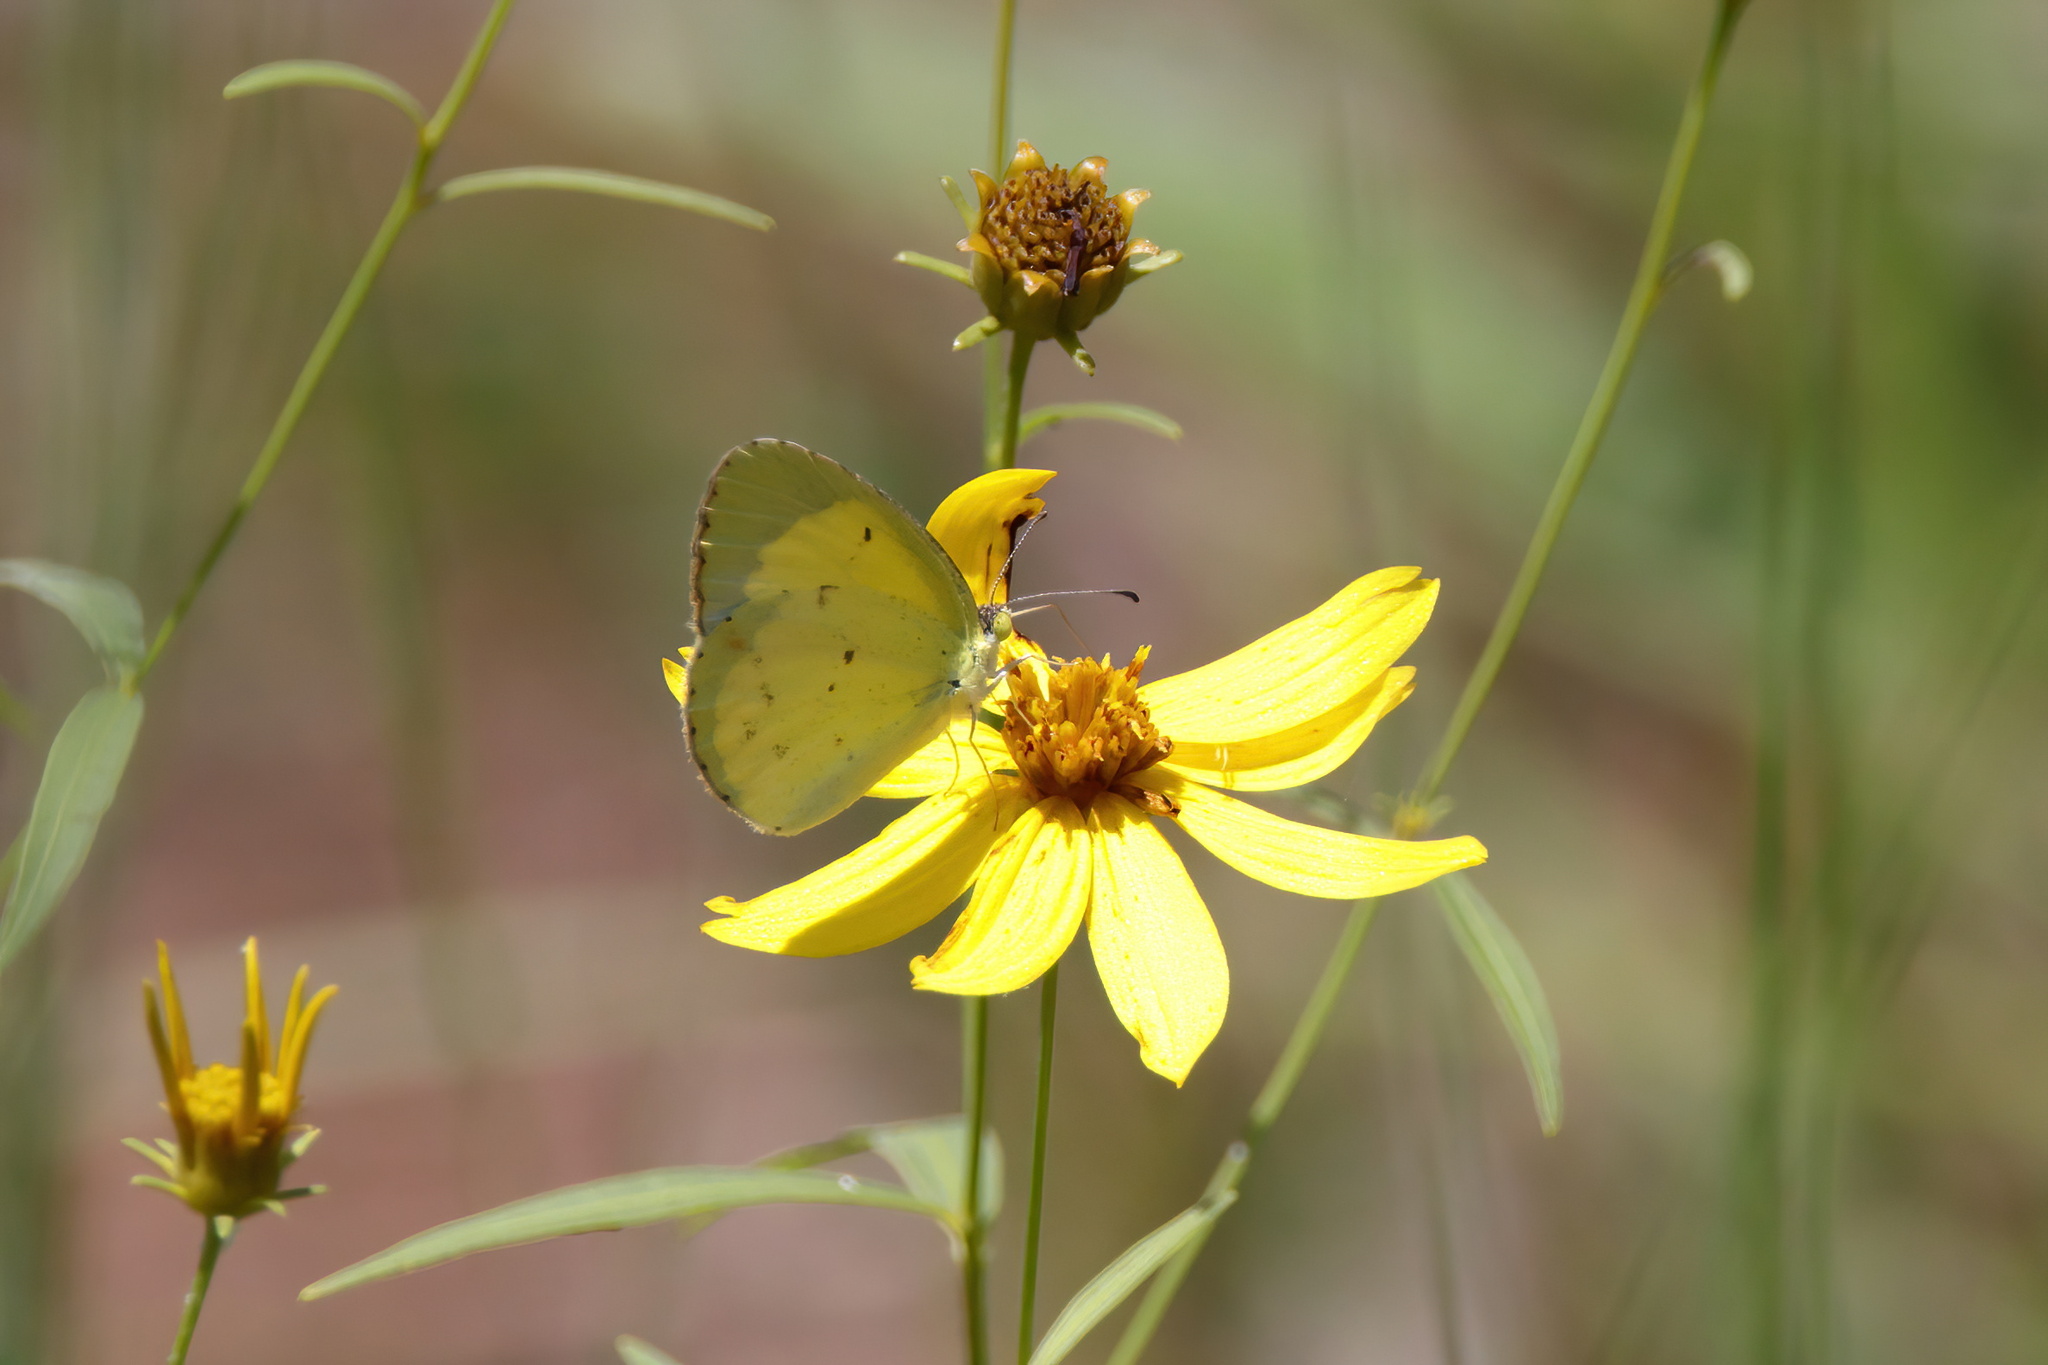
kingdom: Animalia
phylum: Arthropoda
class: Insecta
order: Lepidoptera
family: Pieridae
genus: Pyrisitia
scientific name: Pyrisitia lisa
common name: Little yellow
